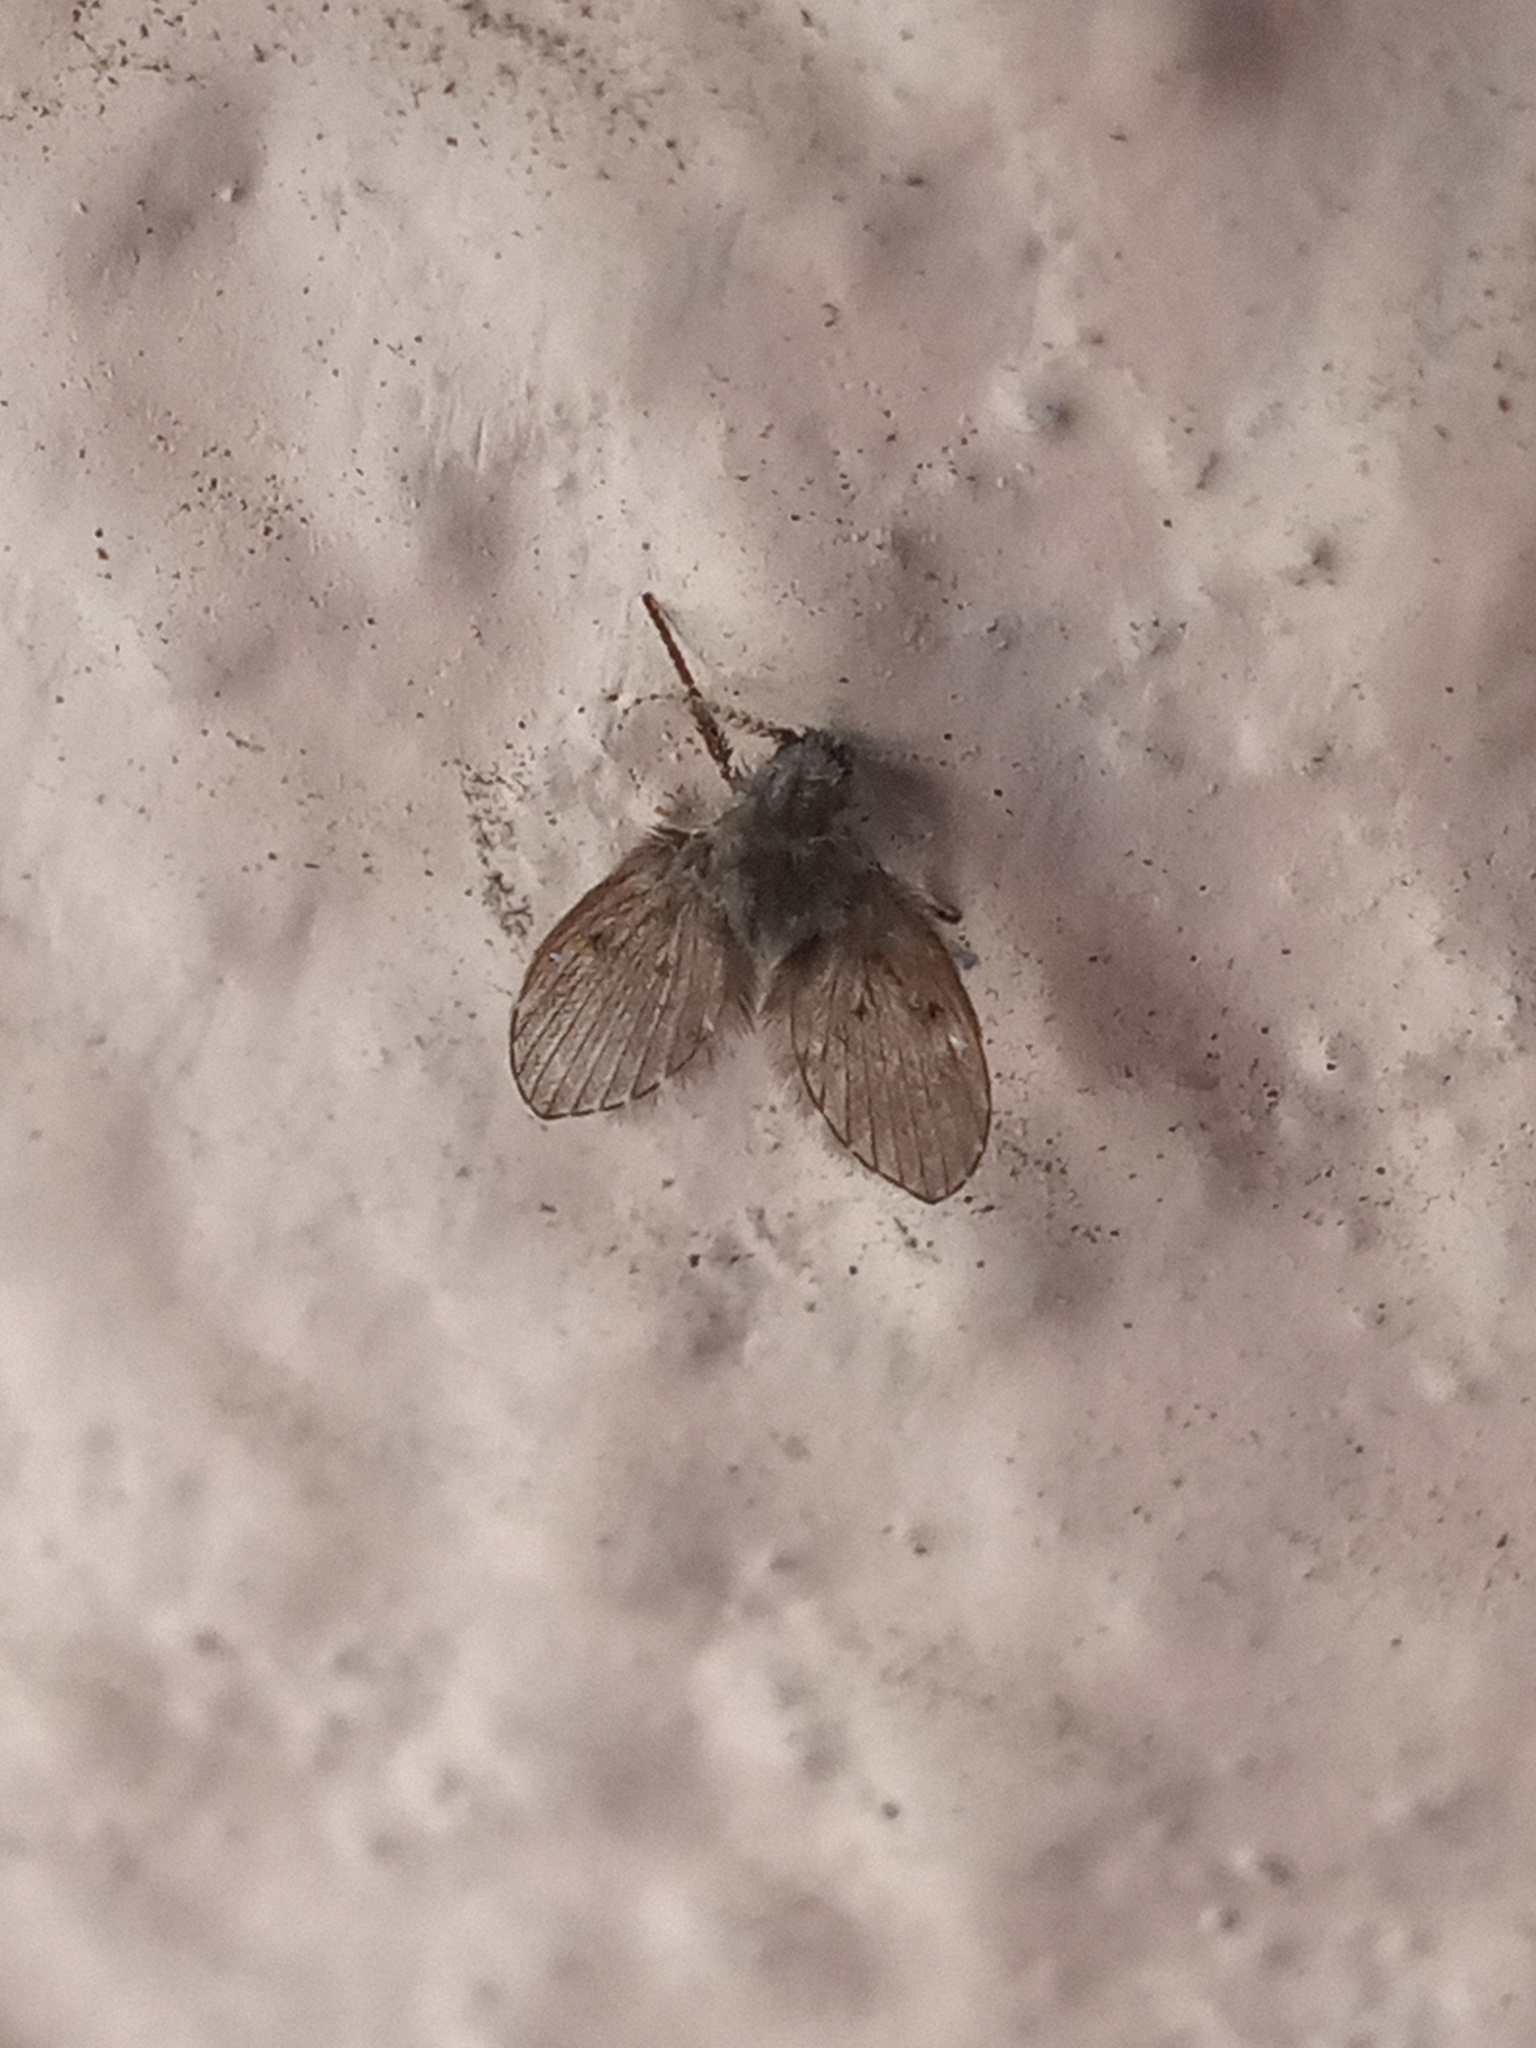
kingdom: Animalia
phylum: Arthropoda
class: Insecta
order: Diptera
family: Psychodidae
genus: Clogmia
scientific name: Clogmia albipunctatus
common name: White-spotted moth fly
